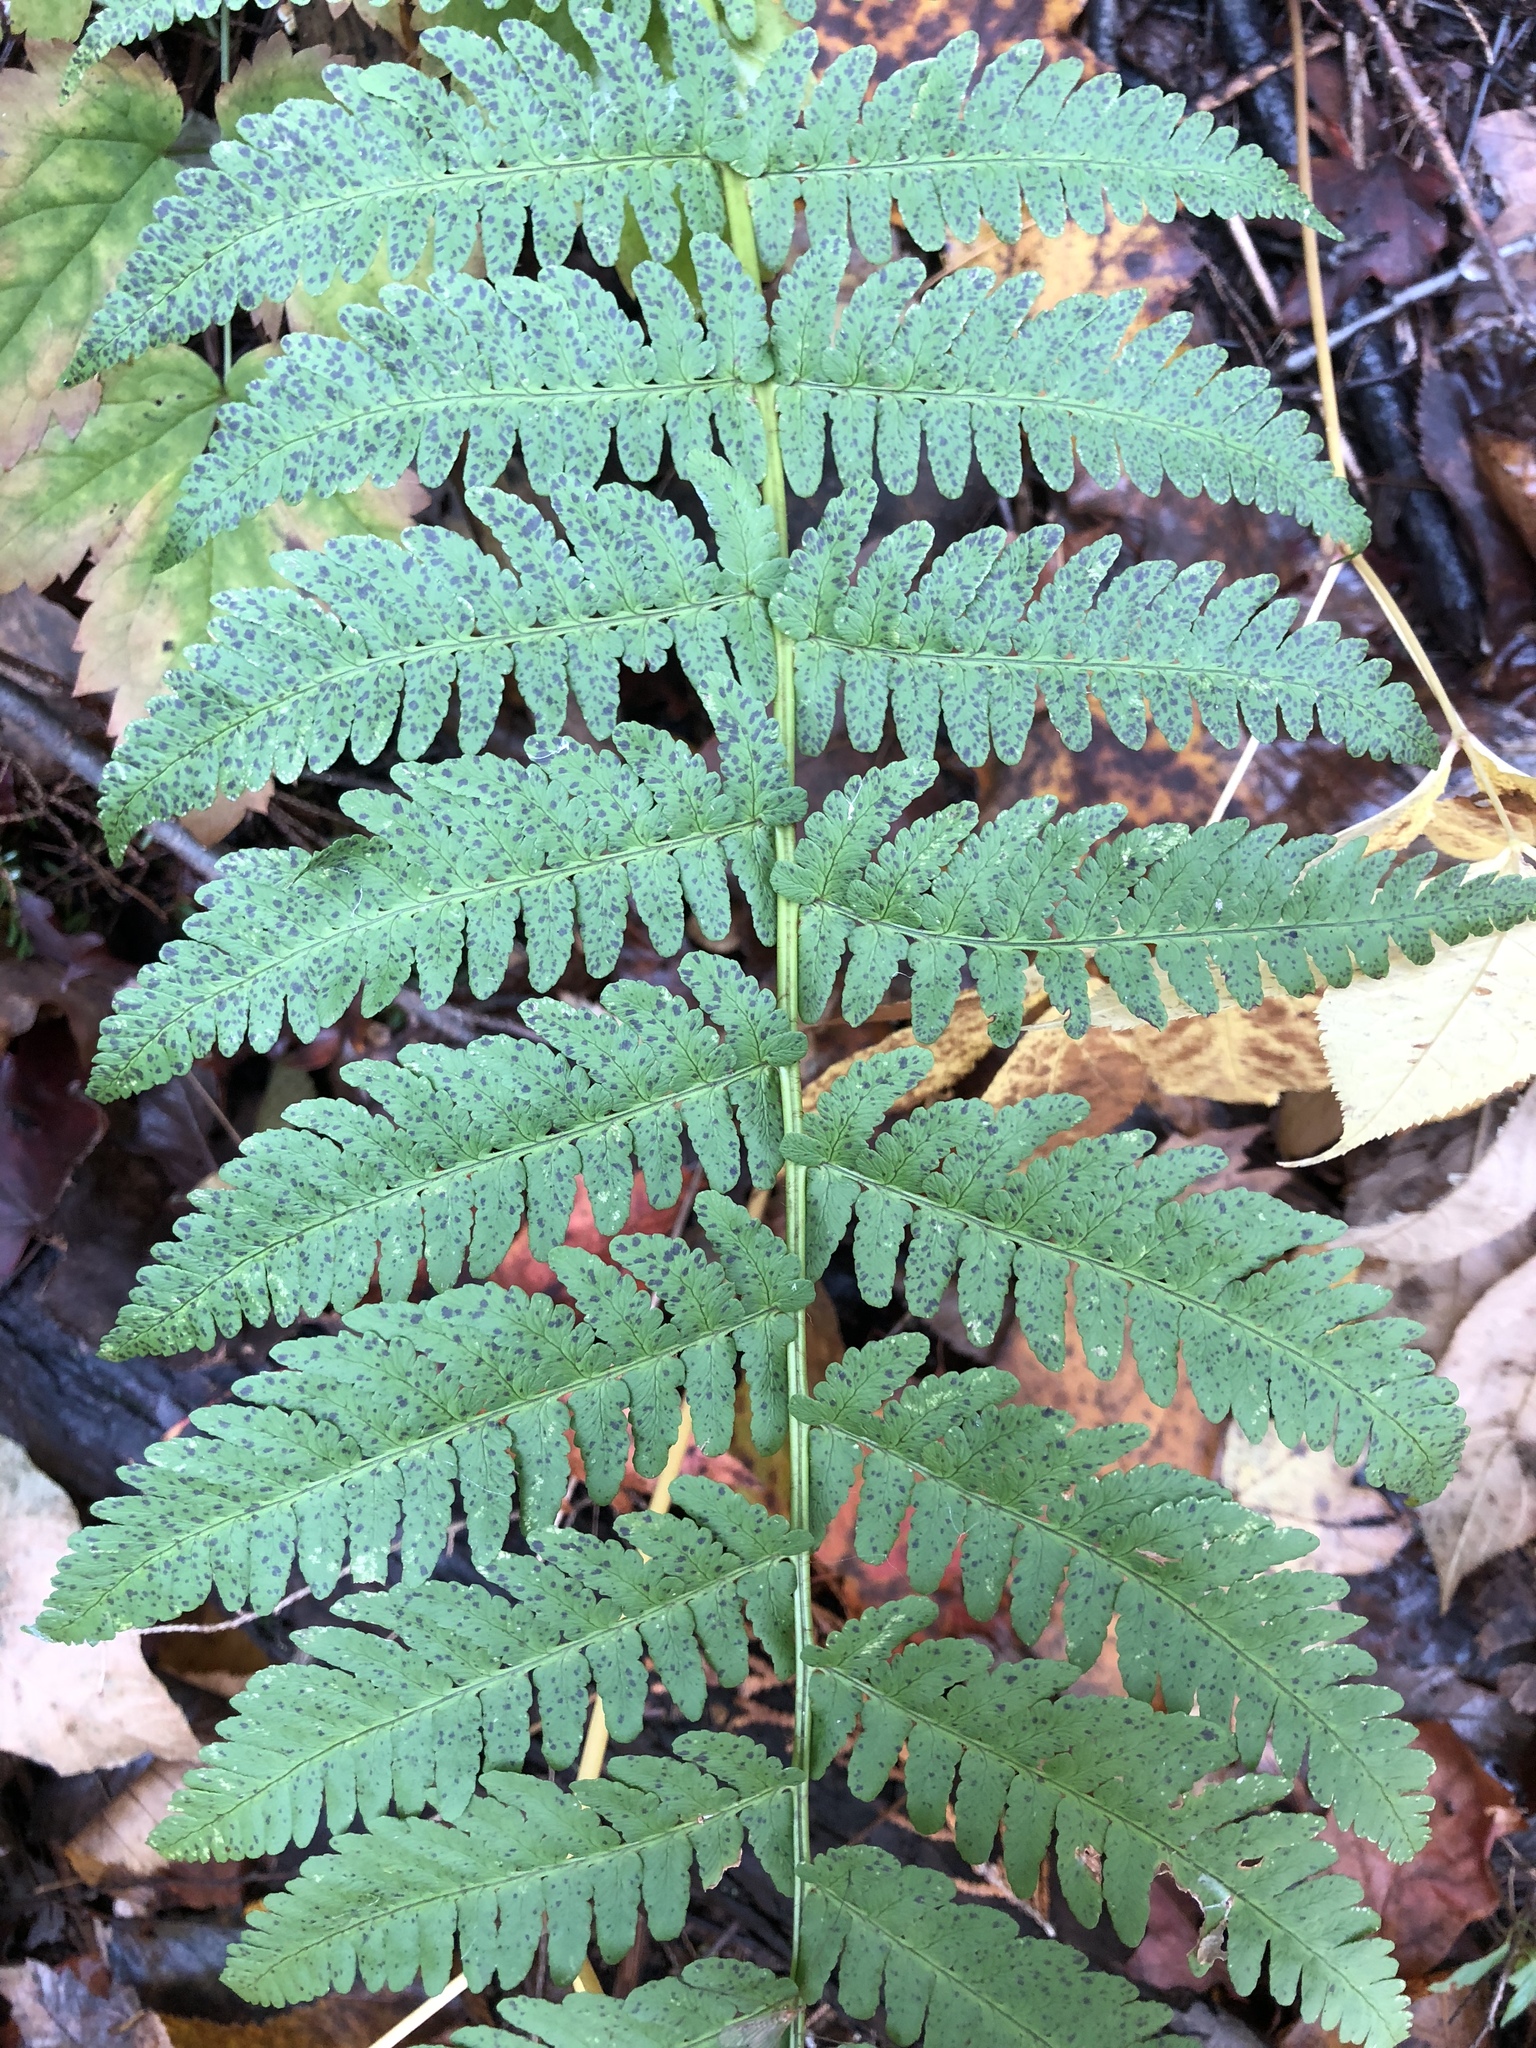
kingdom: Plantae
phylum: Tracheophyta
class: Polypodiopsida
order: Polypodiales
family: Dryopteridaceae
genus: Dryopteris
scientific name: Dryopteris marginalis
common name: Marginal wood fern
